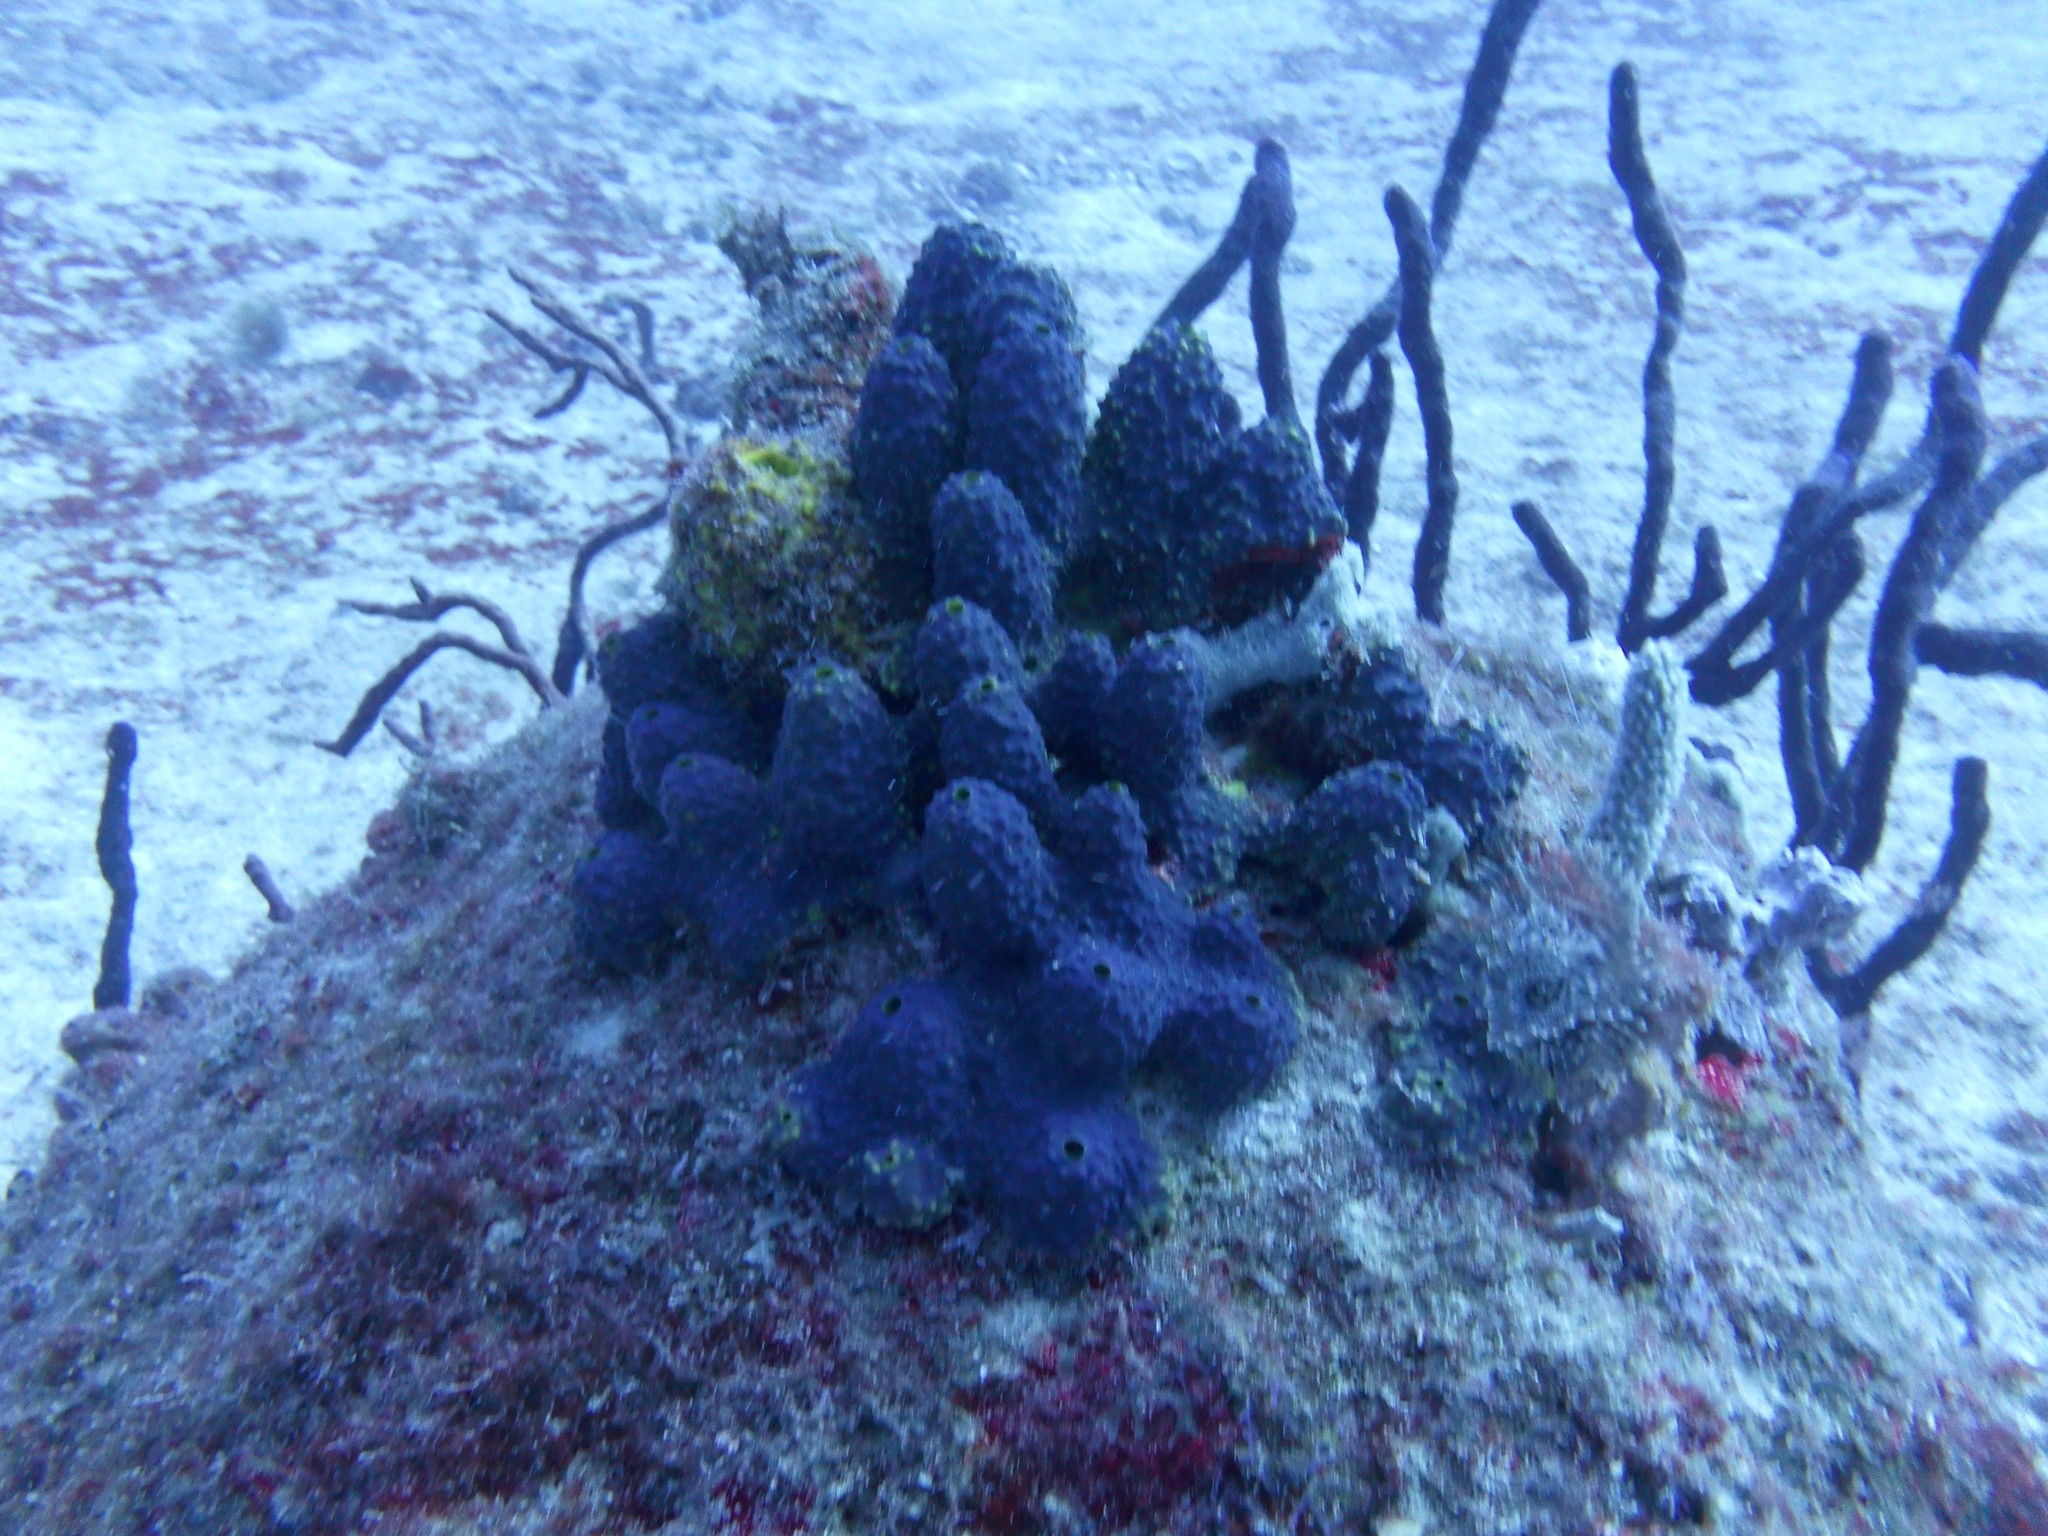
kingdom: Animalia
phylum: Porifera
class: Demospongiae
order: Verongiida
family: Aplysinidae
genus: Aiolochroia
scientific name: Aiolochroia crassa
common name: Branching tube sponge
